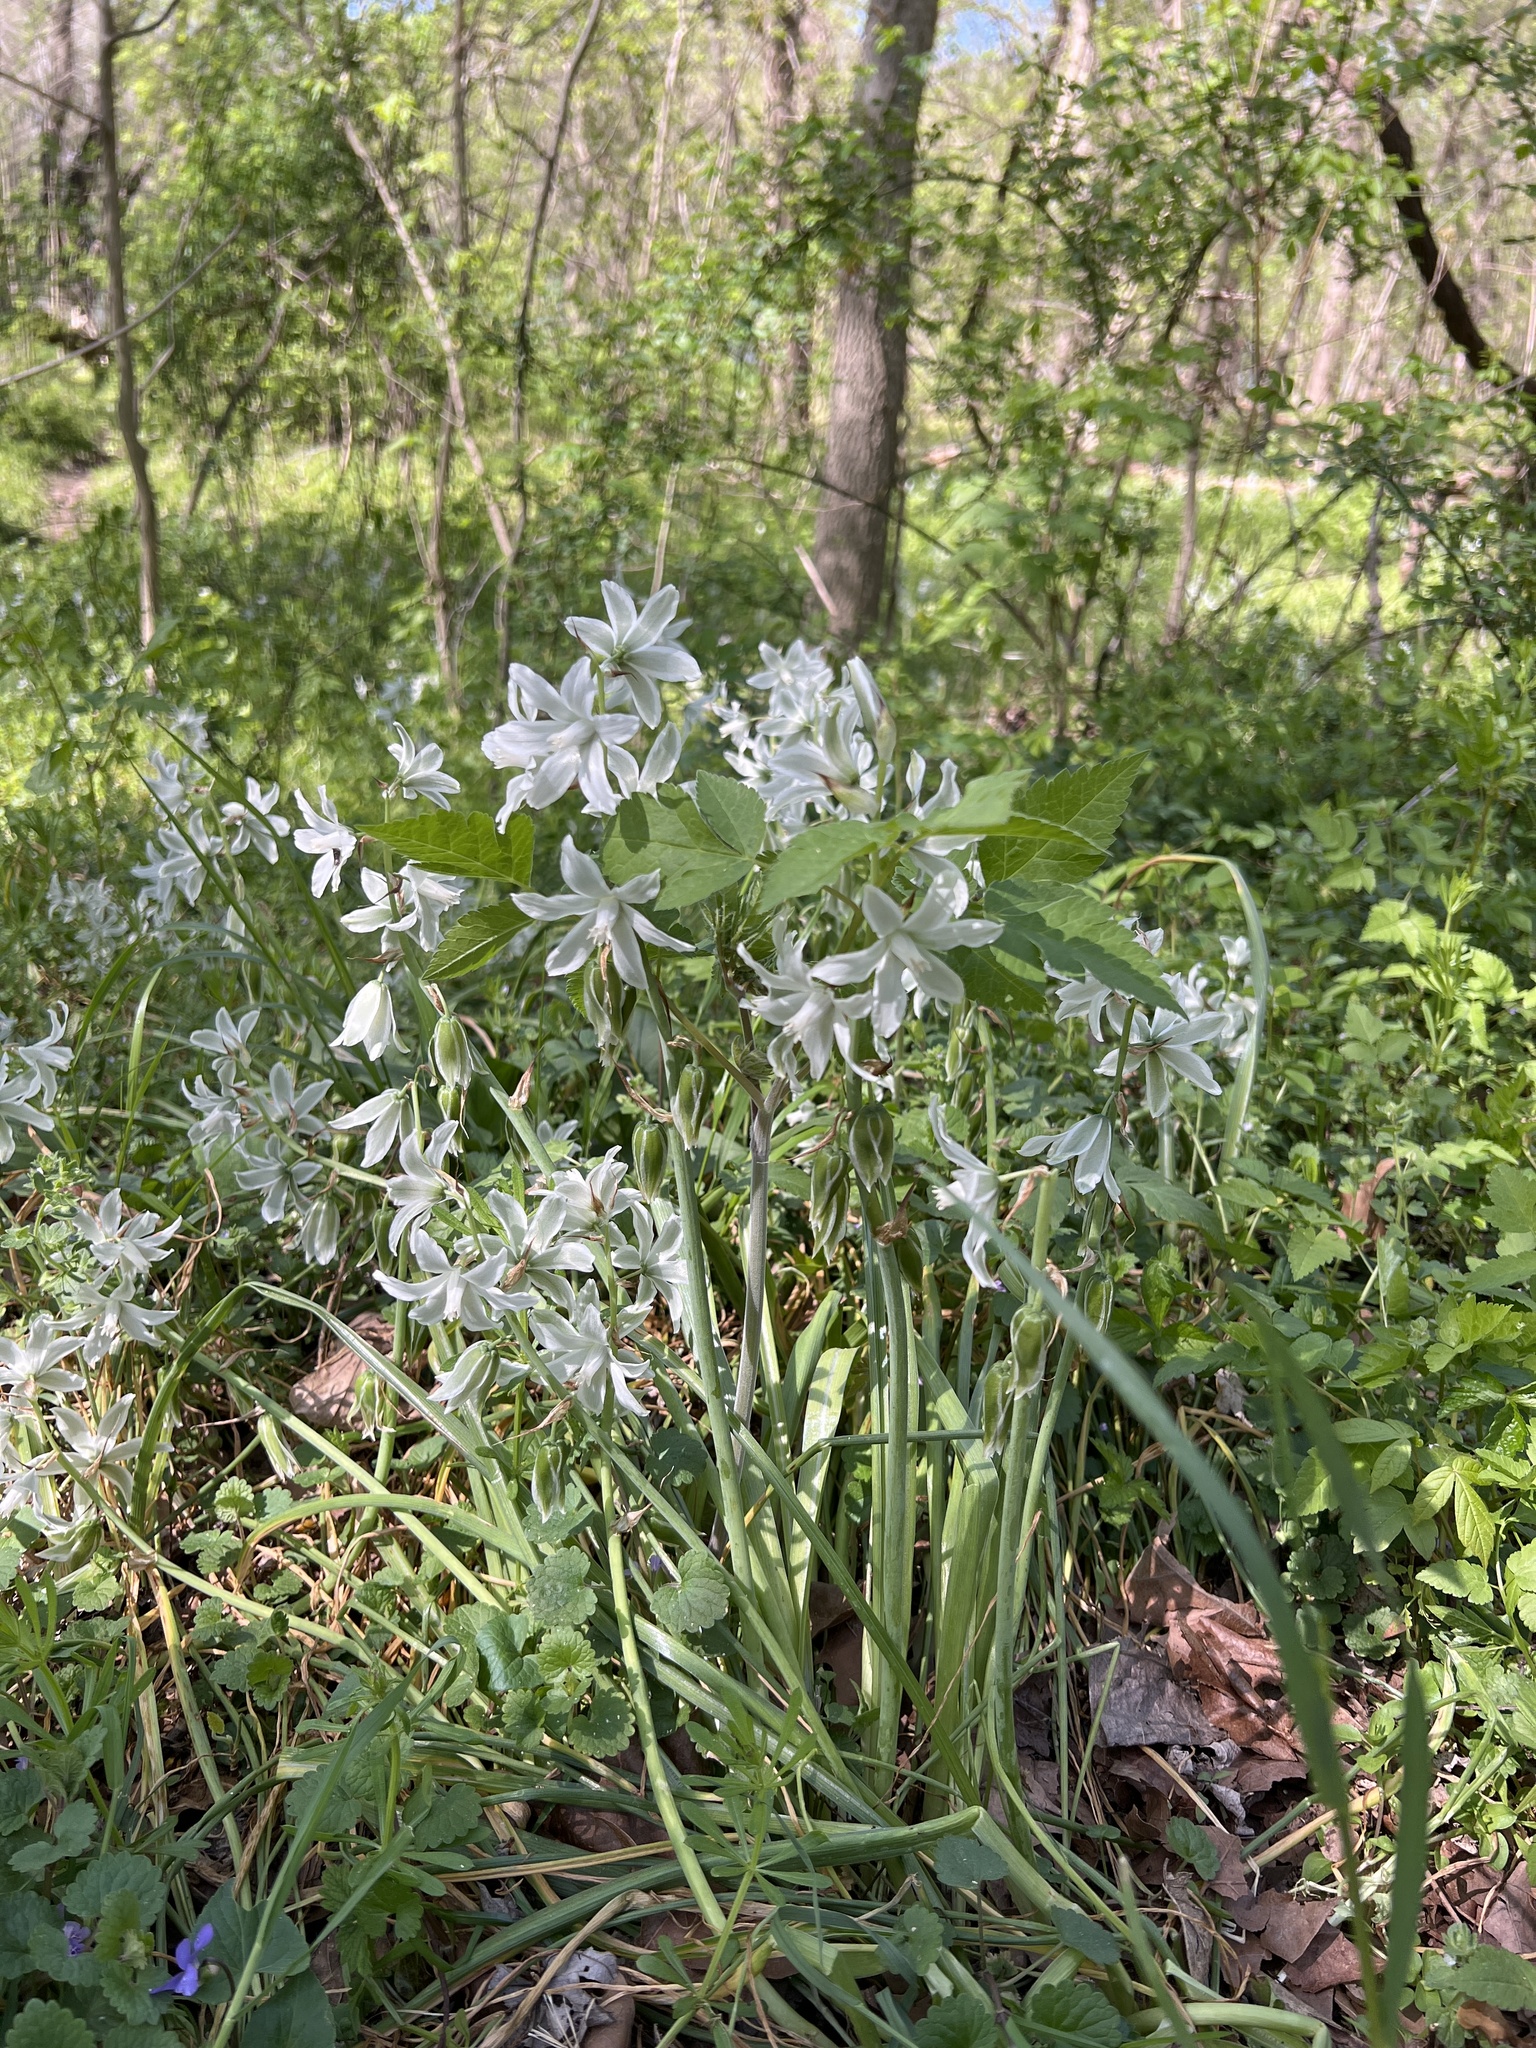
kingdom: Plantae
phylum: Tracheophyta
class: Liliopsida
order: Asparagales
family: Asparagaceae
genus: Ornithogalum
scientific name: Ornithogalum nutans
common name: Drooping star-of-bethlehem
